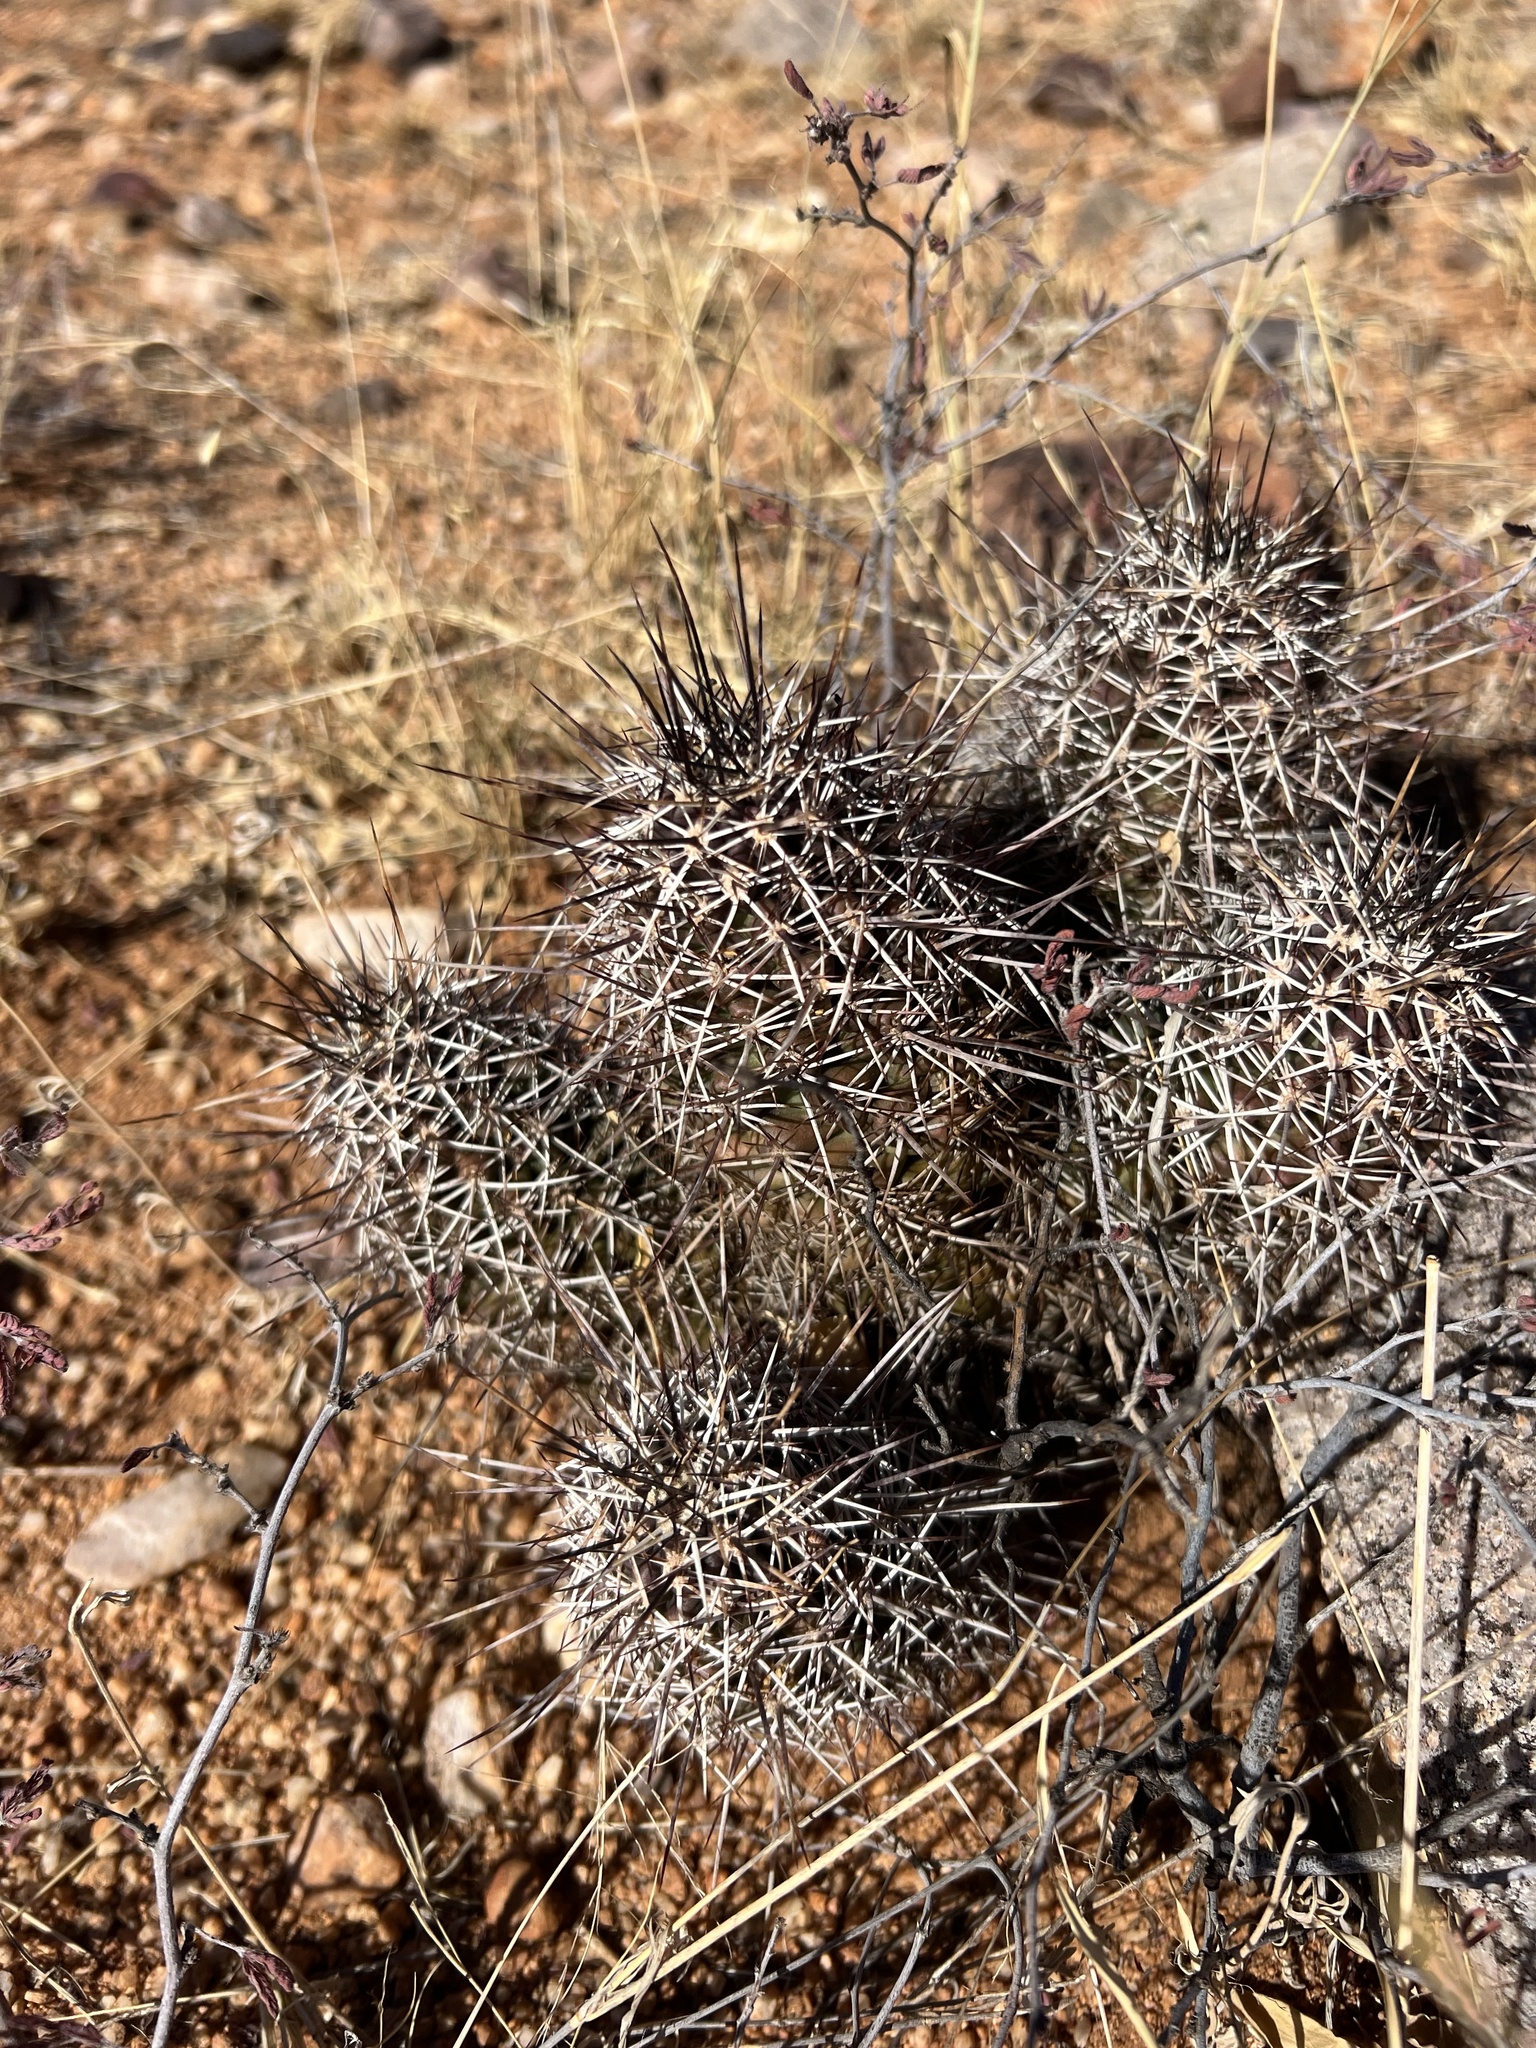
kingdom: Plantae
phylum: Tracheophyta
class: Magnoliopsida
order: Caryophyllales
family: Cactaceae
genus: Echinocereus
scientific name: Echinocereus fasciculatus
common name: Bundle hedgehog
